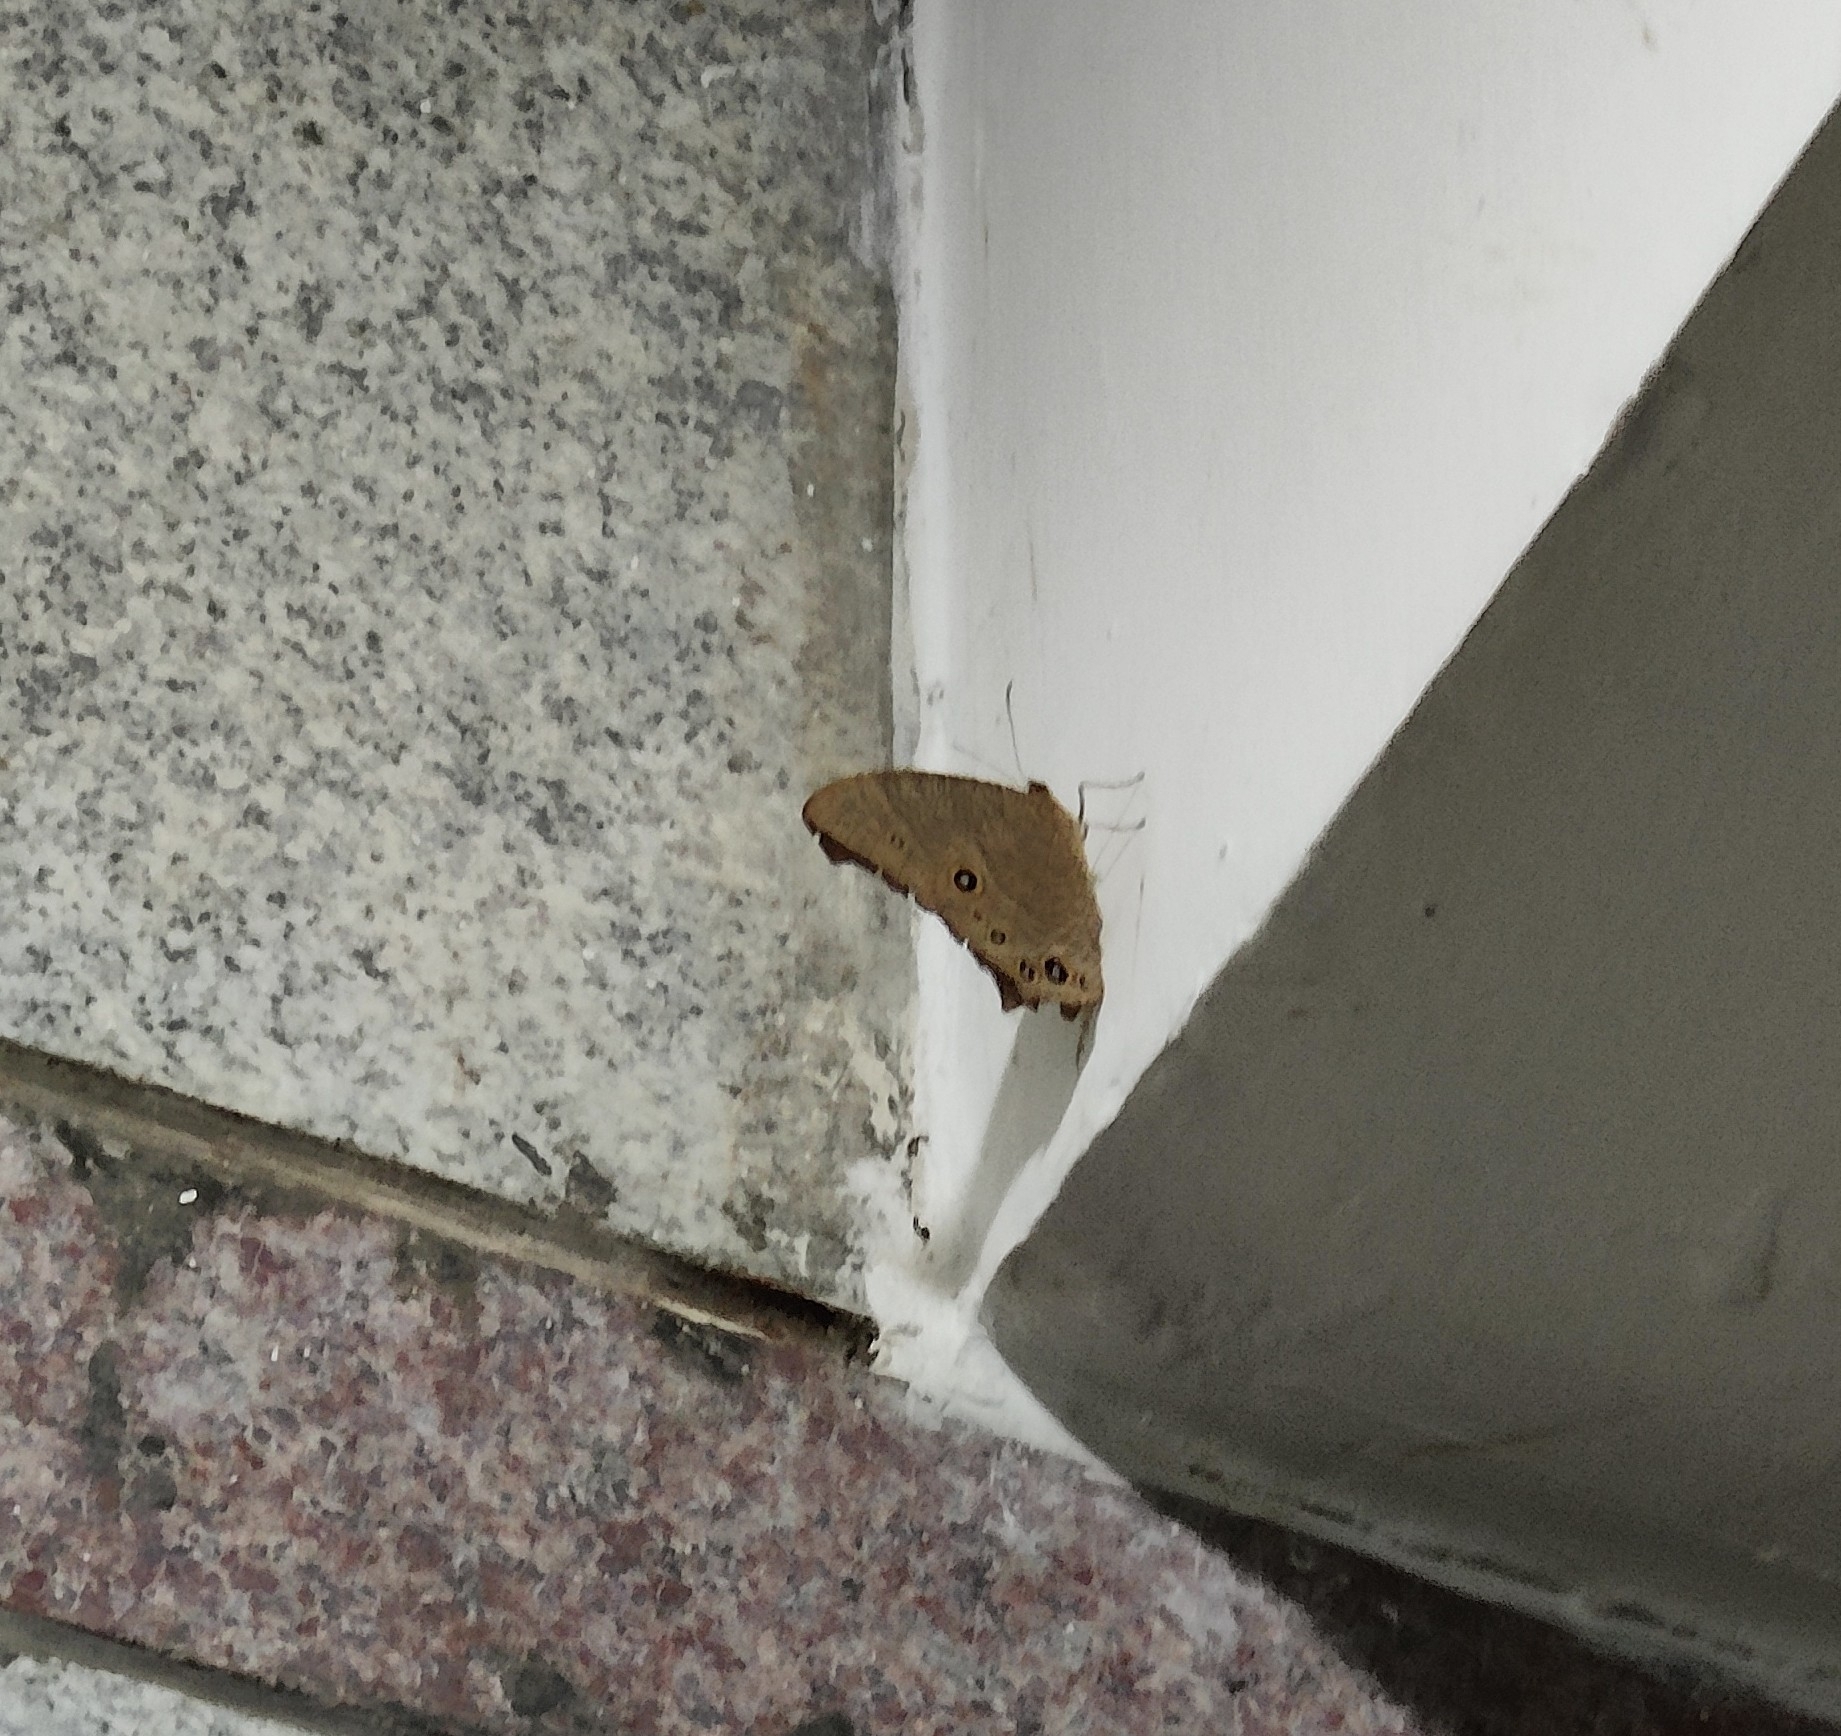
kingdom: Animalia
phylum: Arthropoda
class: Insecta
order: Lepidoptera
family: Nymphalidae
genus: Melanitis
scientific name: Melanitis leda
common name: Twilight brown
